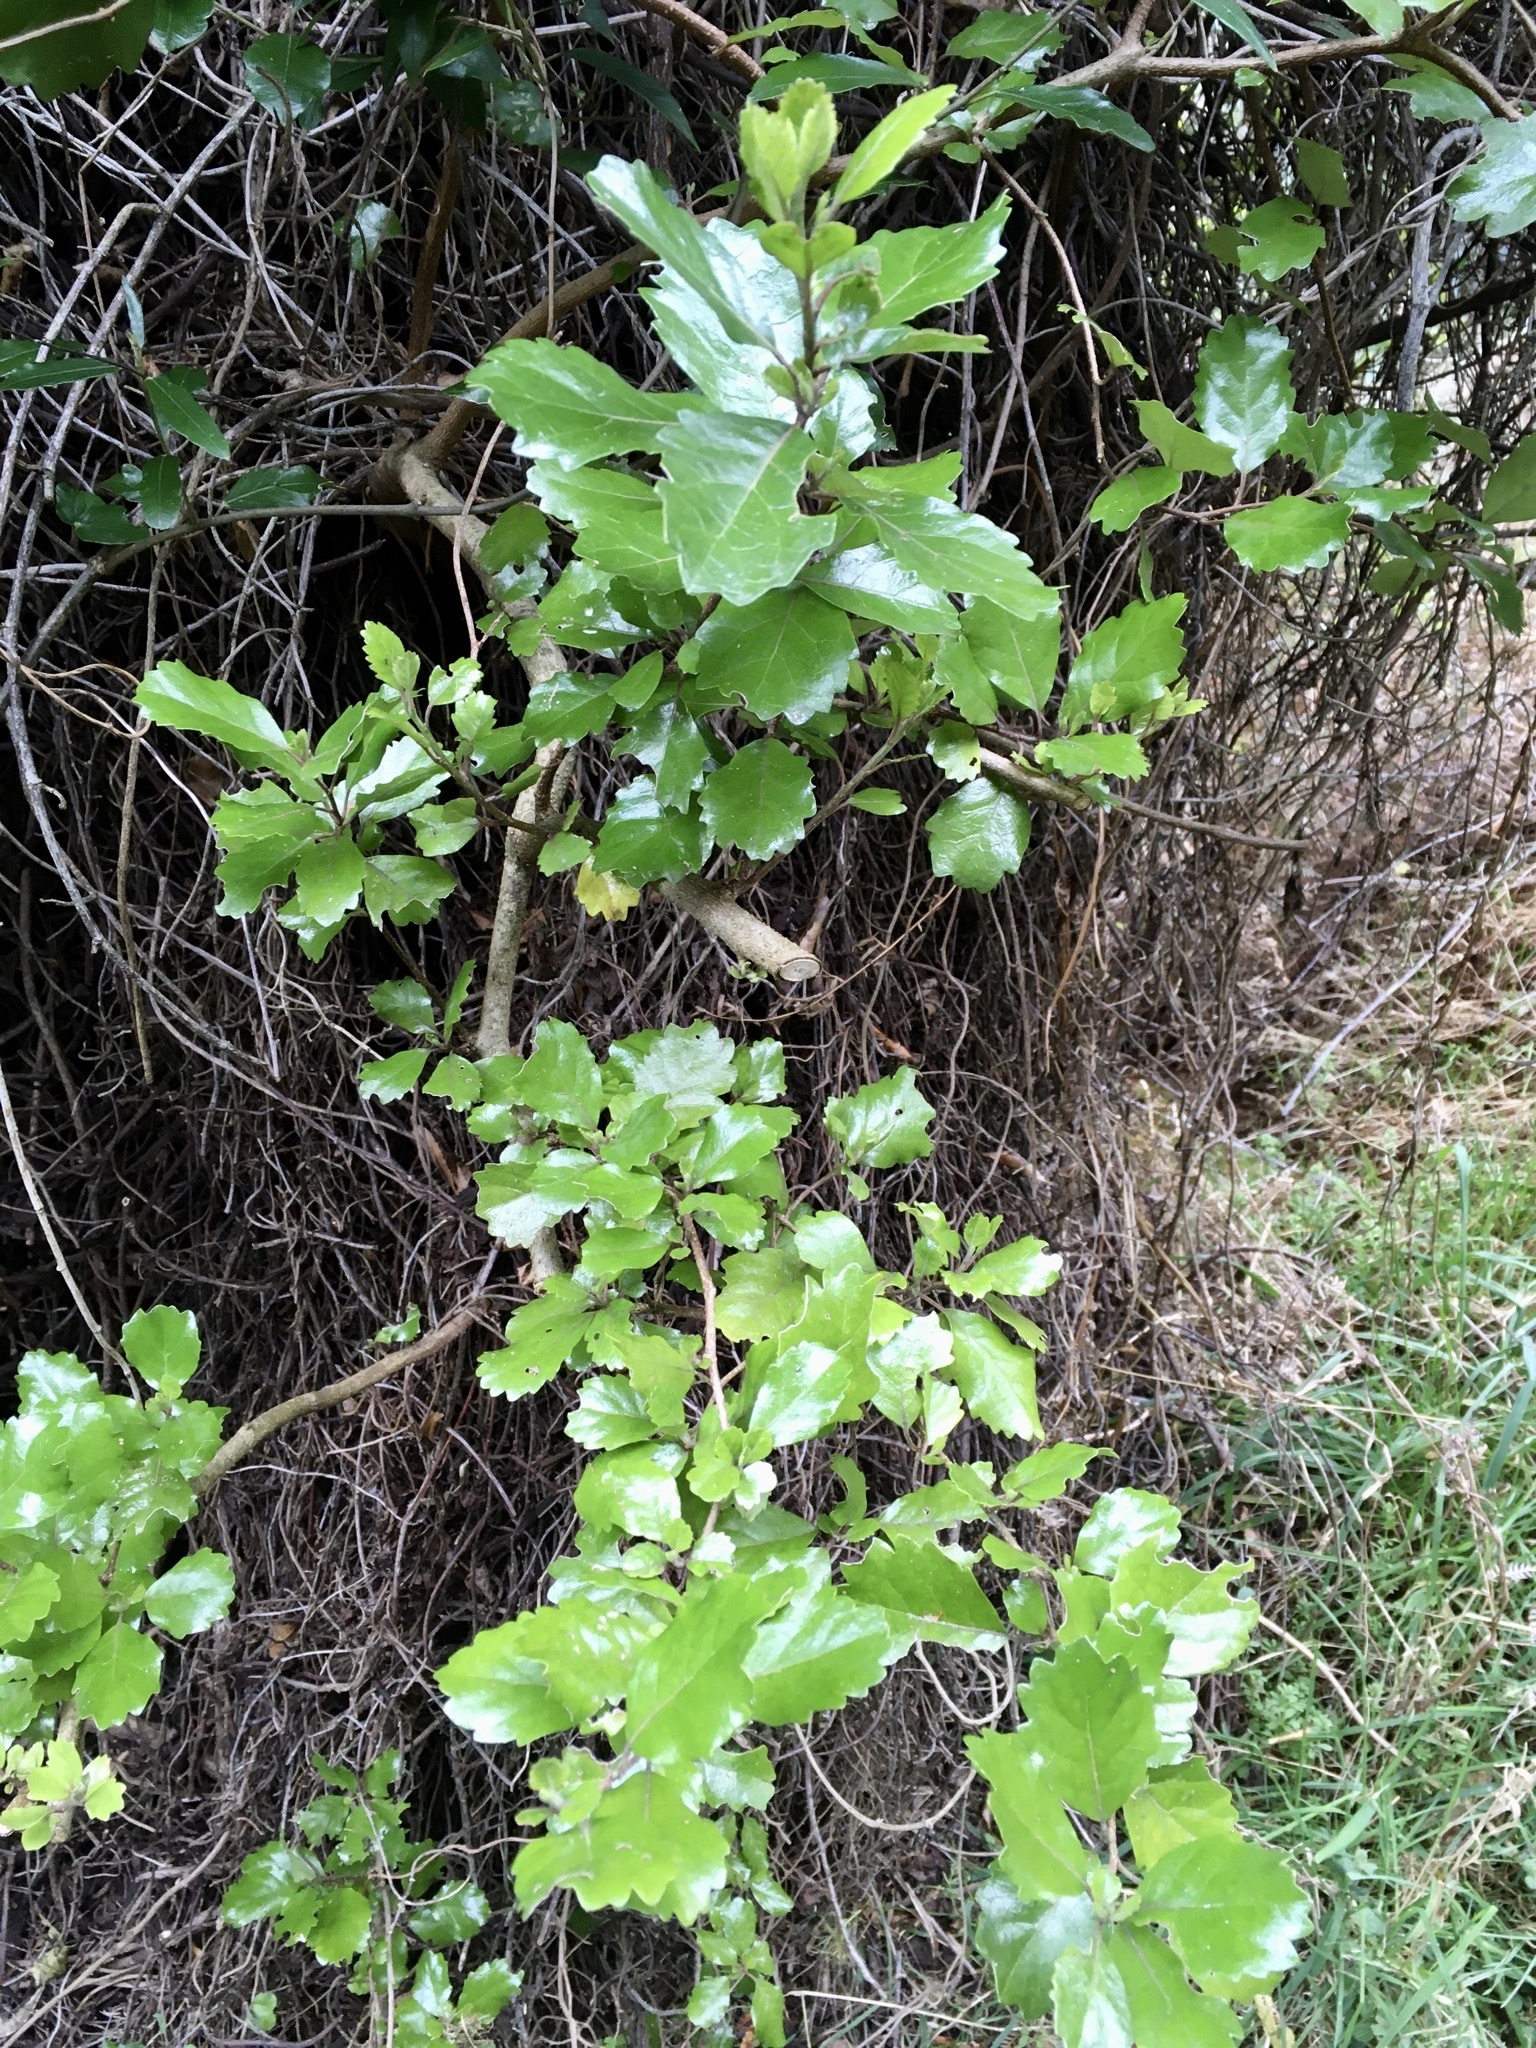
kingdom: Plantae
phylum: Tracheophyta
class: Magnoliopsida
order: Apiales
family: Pennantiaceae
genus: Pennantia
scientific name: Pennantia corymbosa
